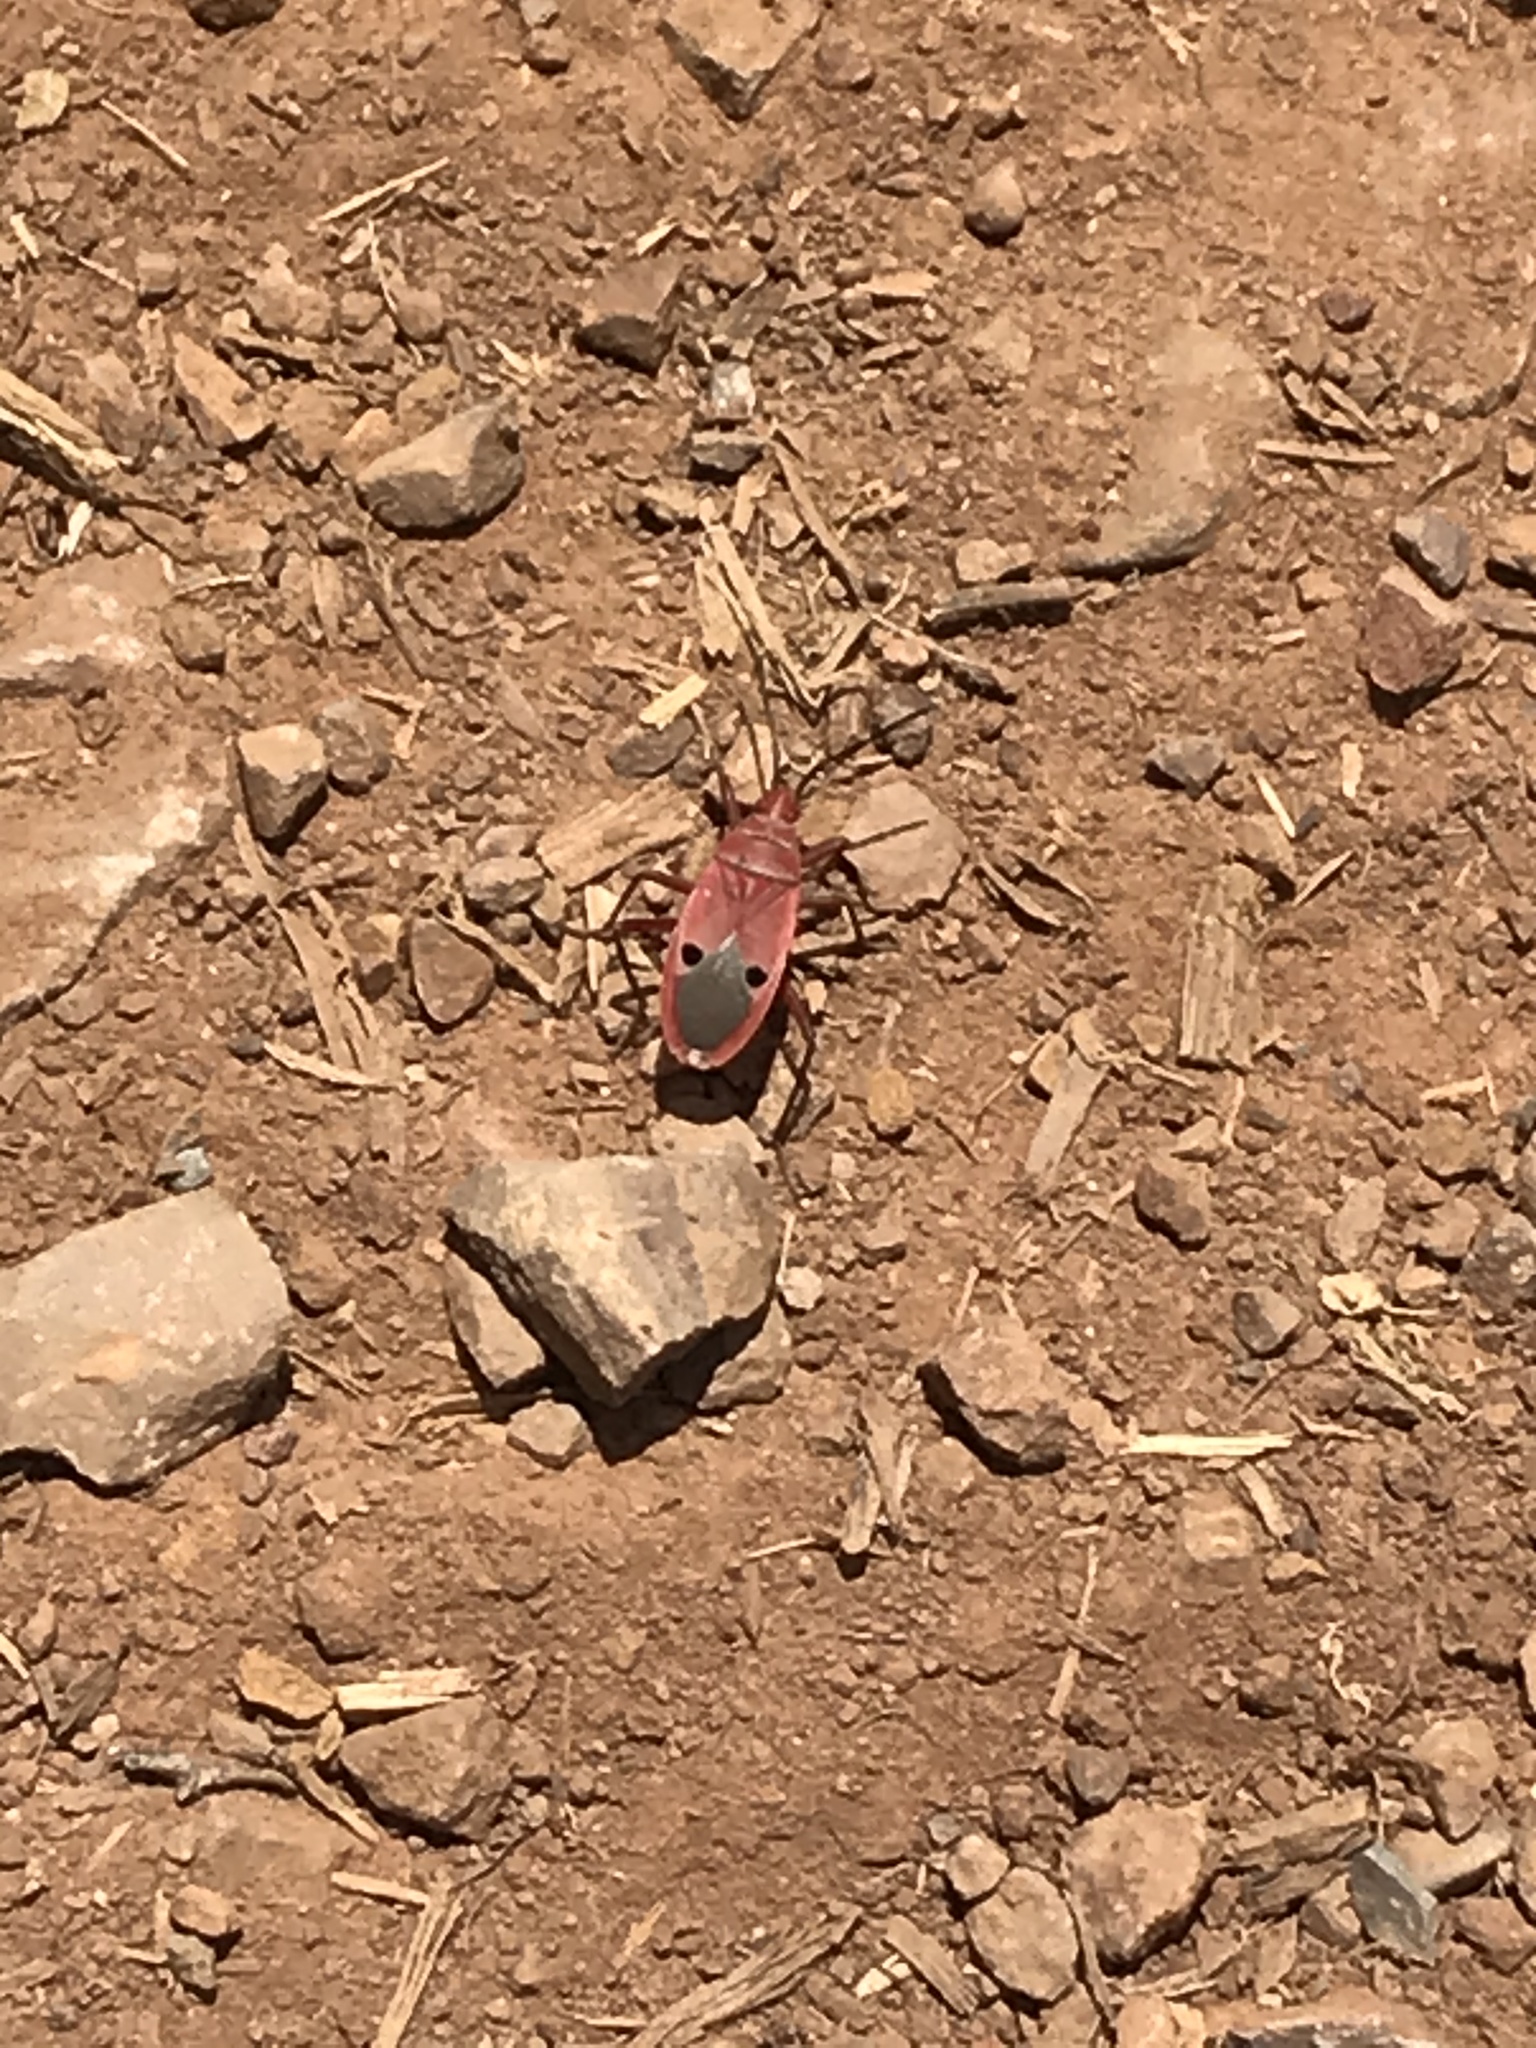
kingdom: Animalia
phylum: Arthropoda
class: Insecta
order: Hemiptera
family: Pyrrhocoridae
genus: Probergrothius
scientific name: Probergrothius nigricornis
